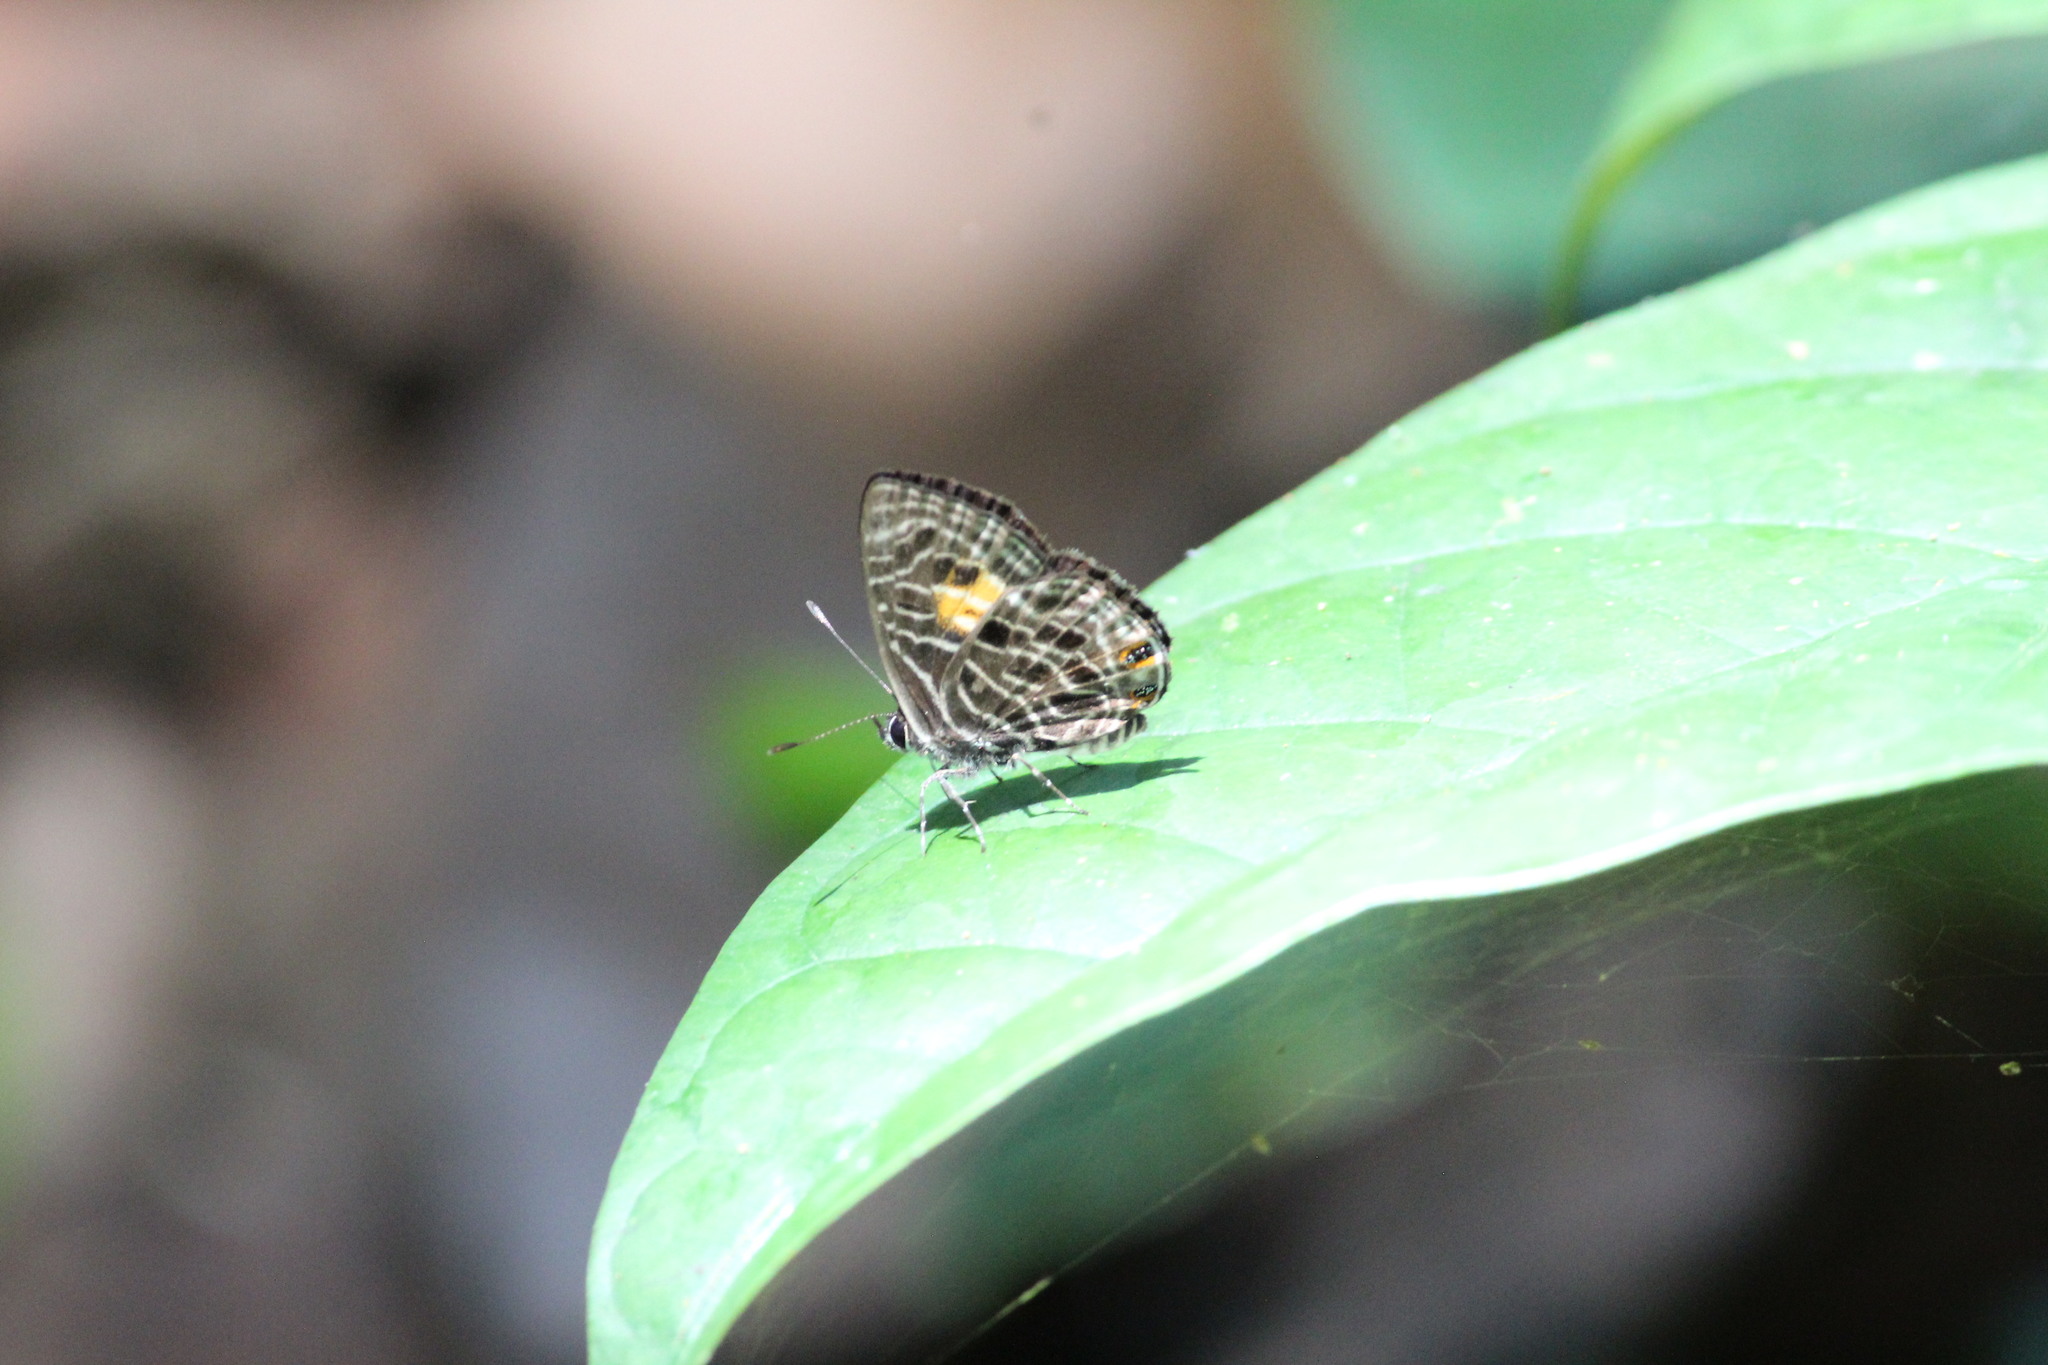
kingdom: Animalia
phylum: Arthropoda
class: Insecta
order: Lepidoptera
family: Lycaenidae
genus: Neurellipes
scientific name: Neurellipes
